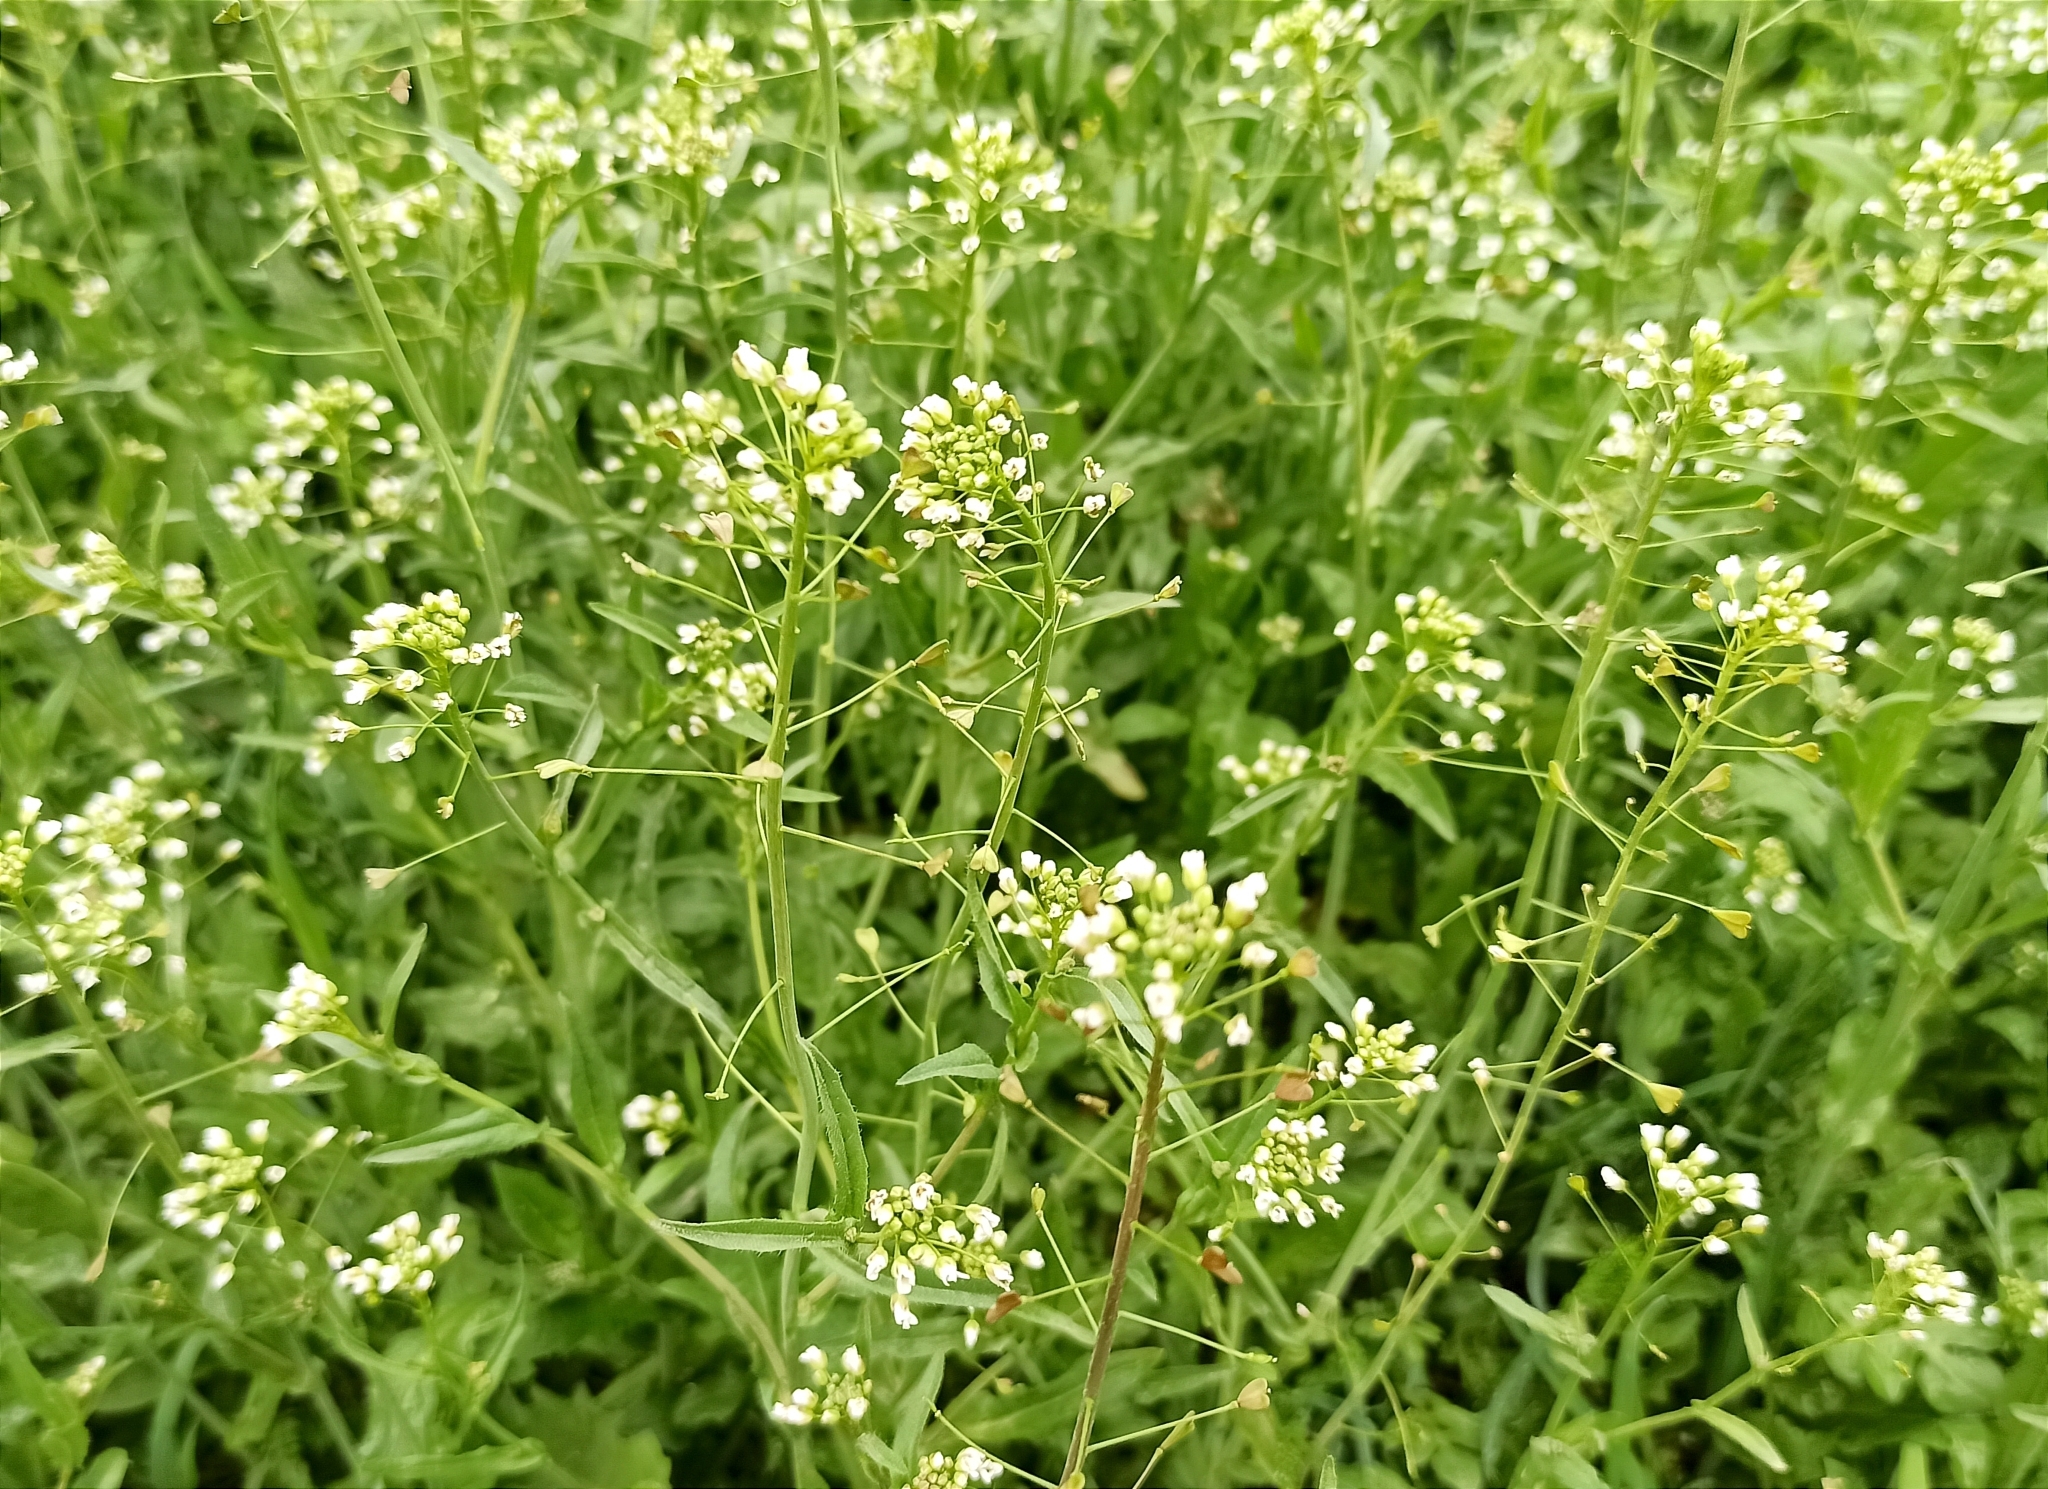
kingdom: Plantae
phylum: Tracheophyta
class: Magnoliopsida
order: Brassicales
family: Brassicaceae
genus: Capsella
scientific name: Capsella bursa-pastoris
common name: Shepherd's purse
